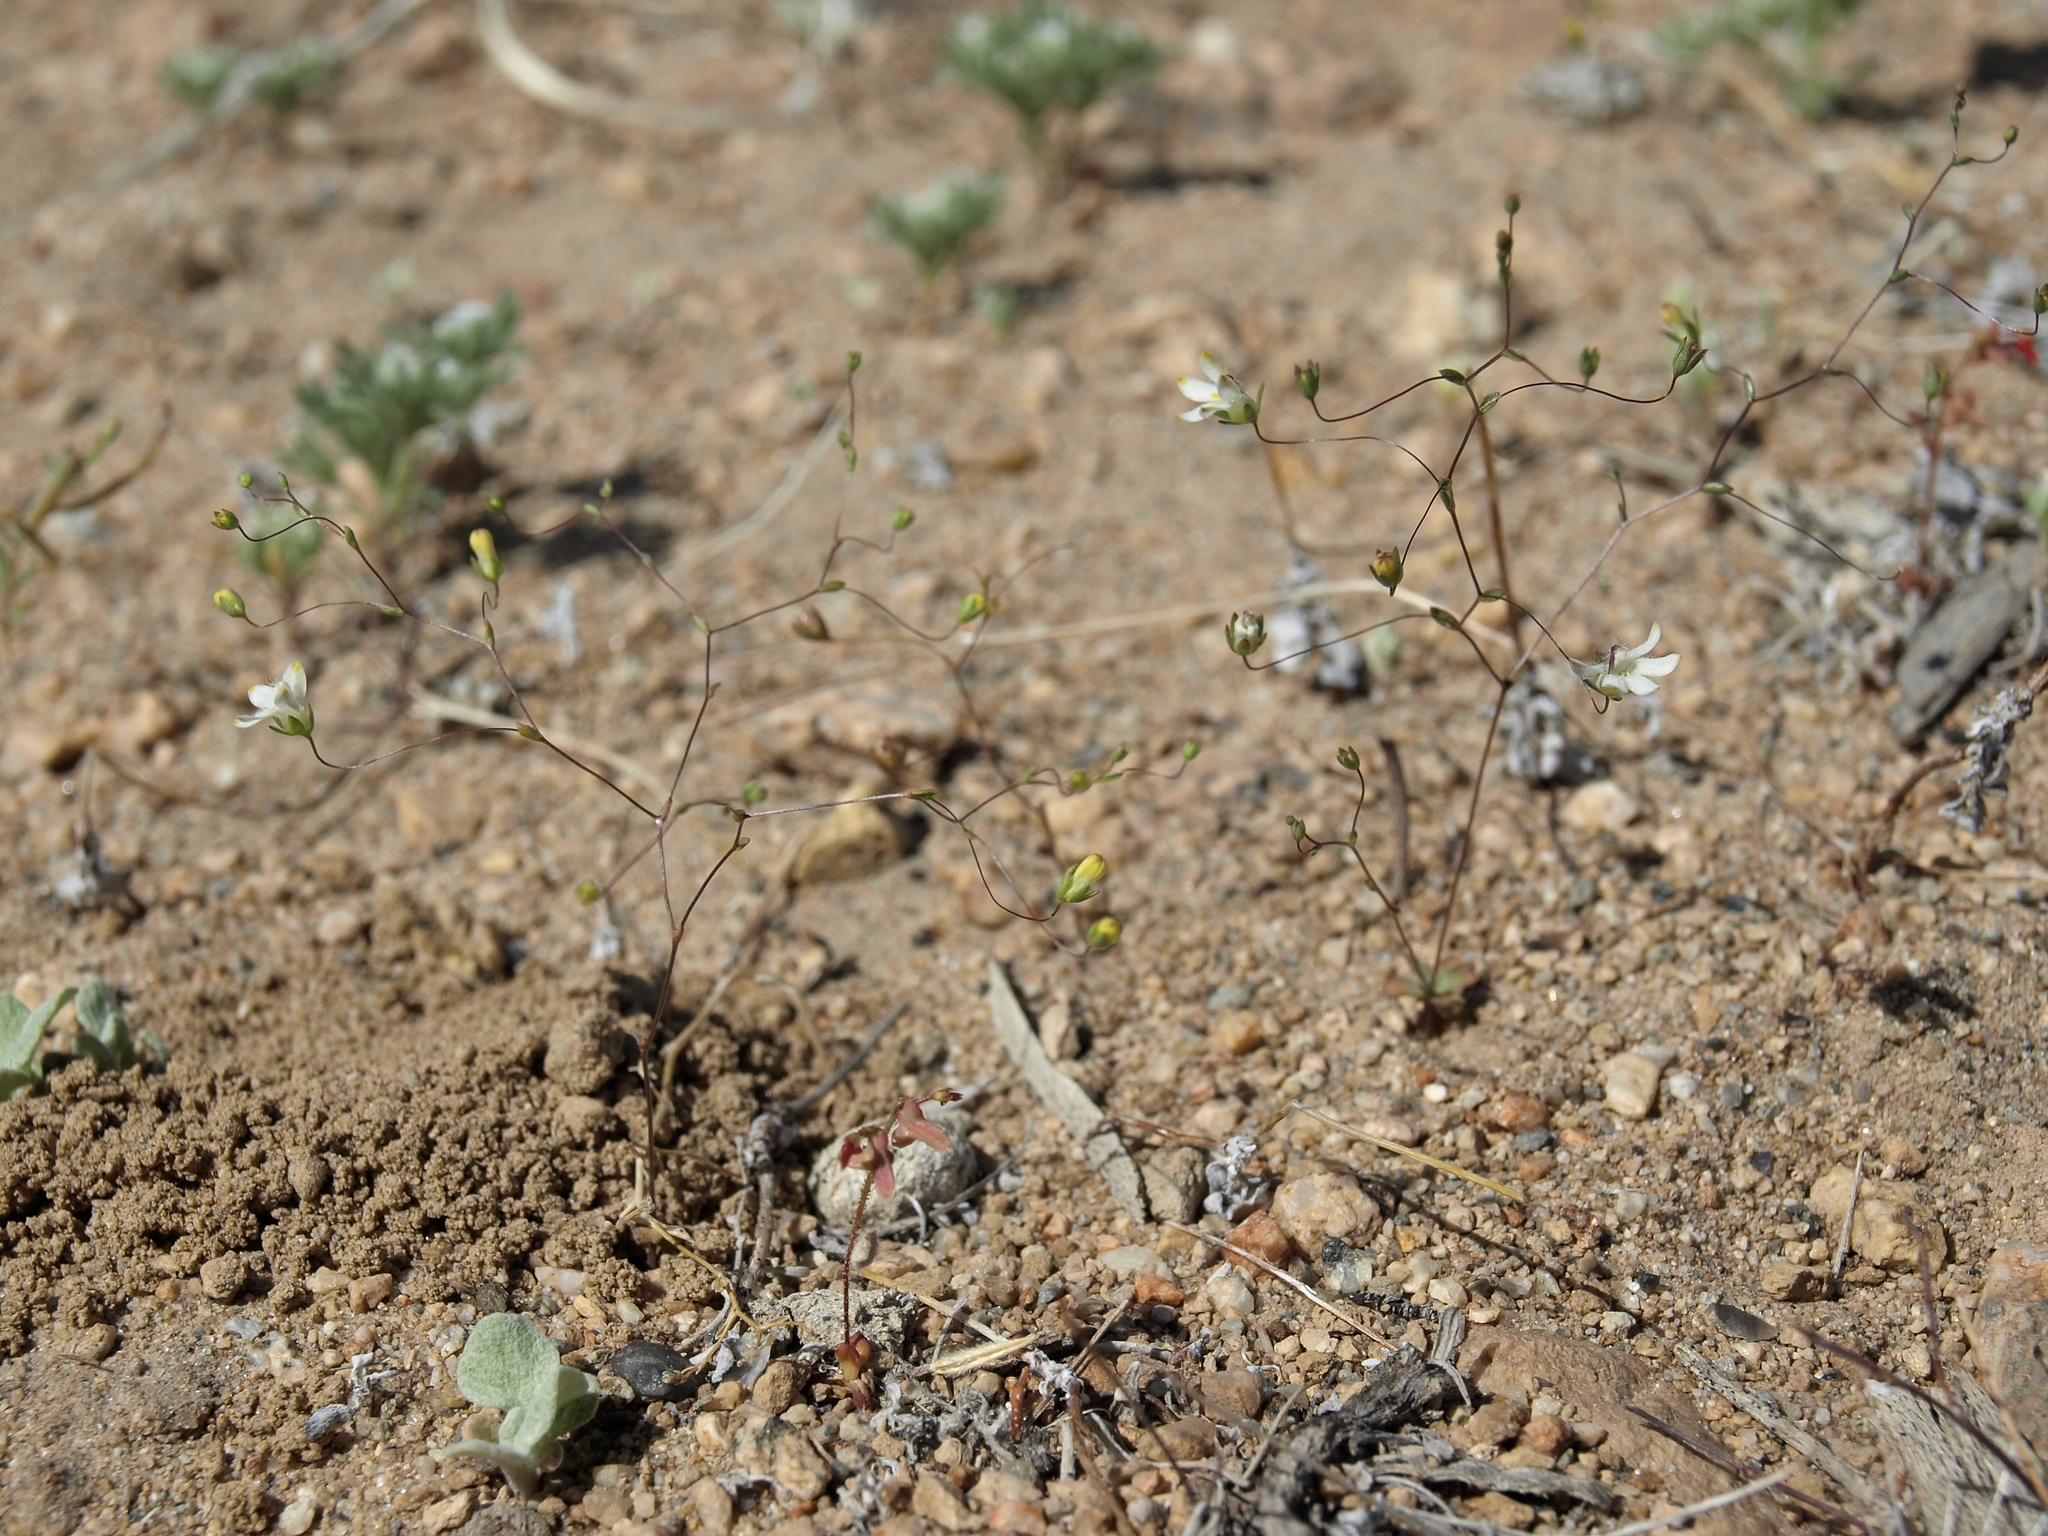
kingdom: Plantae
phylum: Tracheophyta
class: Magnoliopsida
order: Asterales
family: Campanulaceae
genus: Nemacladus
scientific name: Nemacladus matsonii
